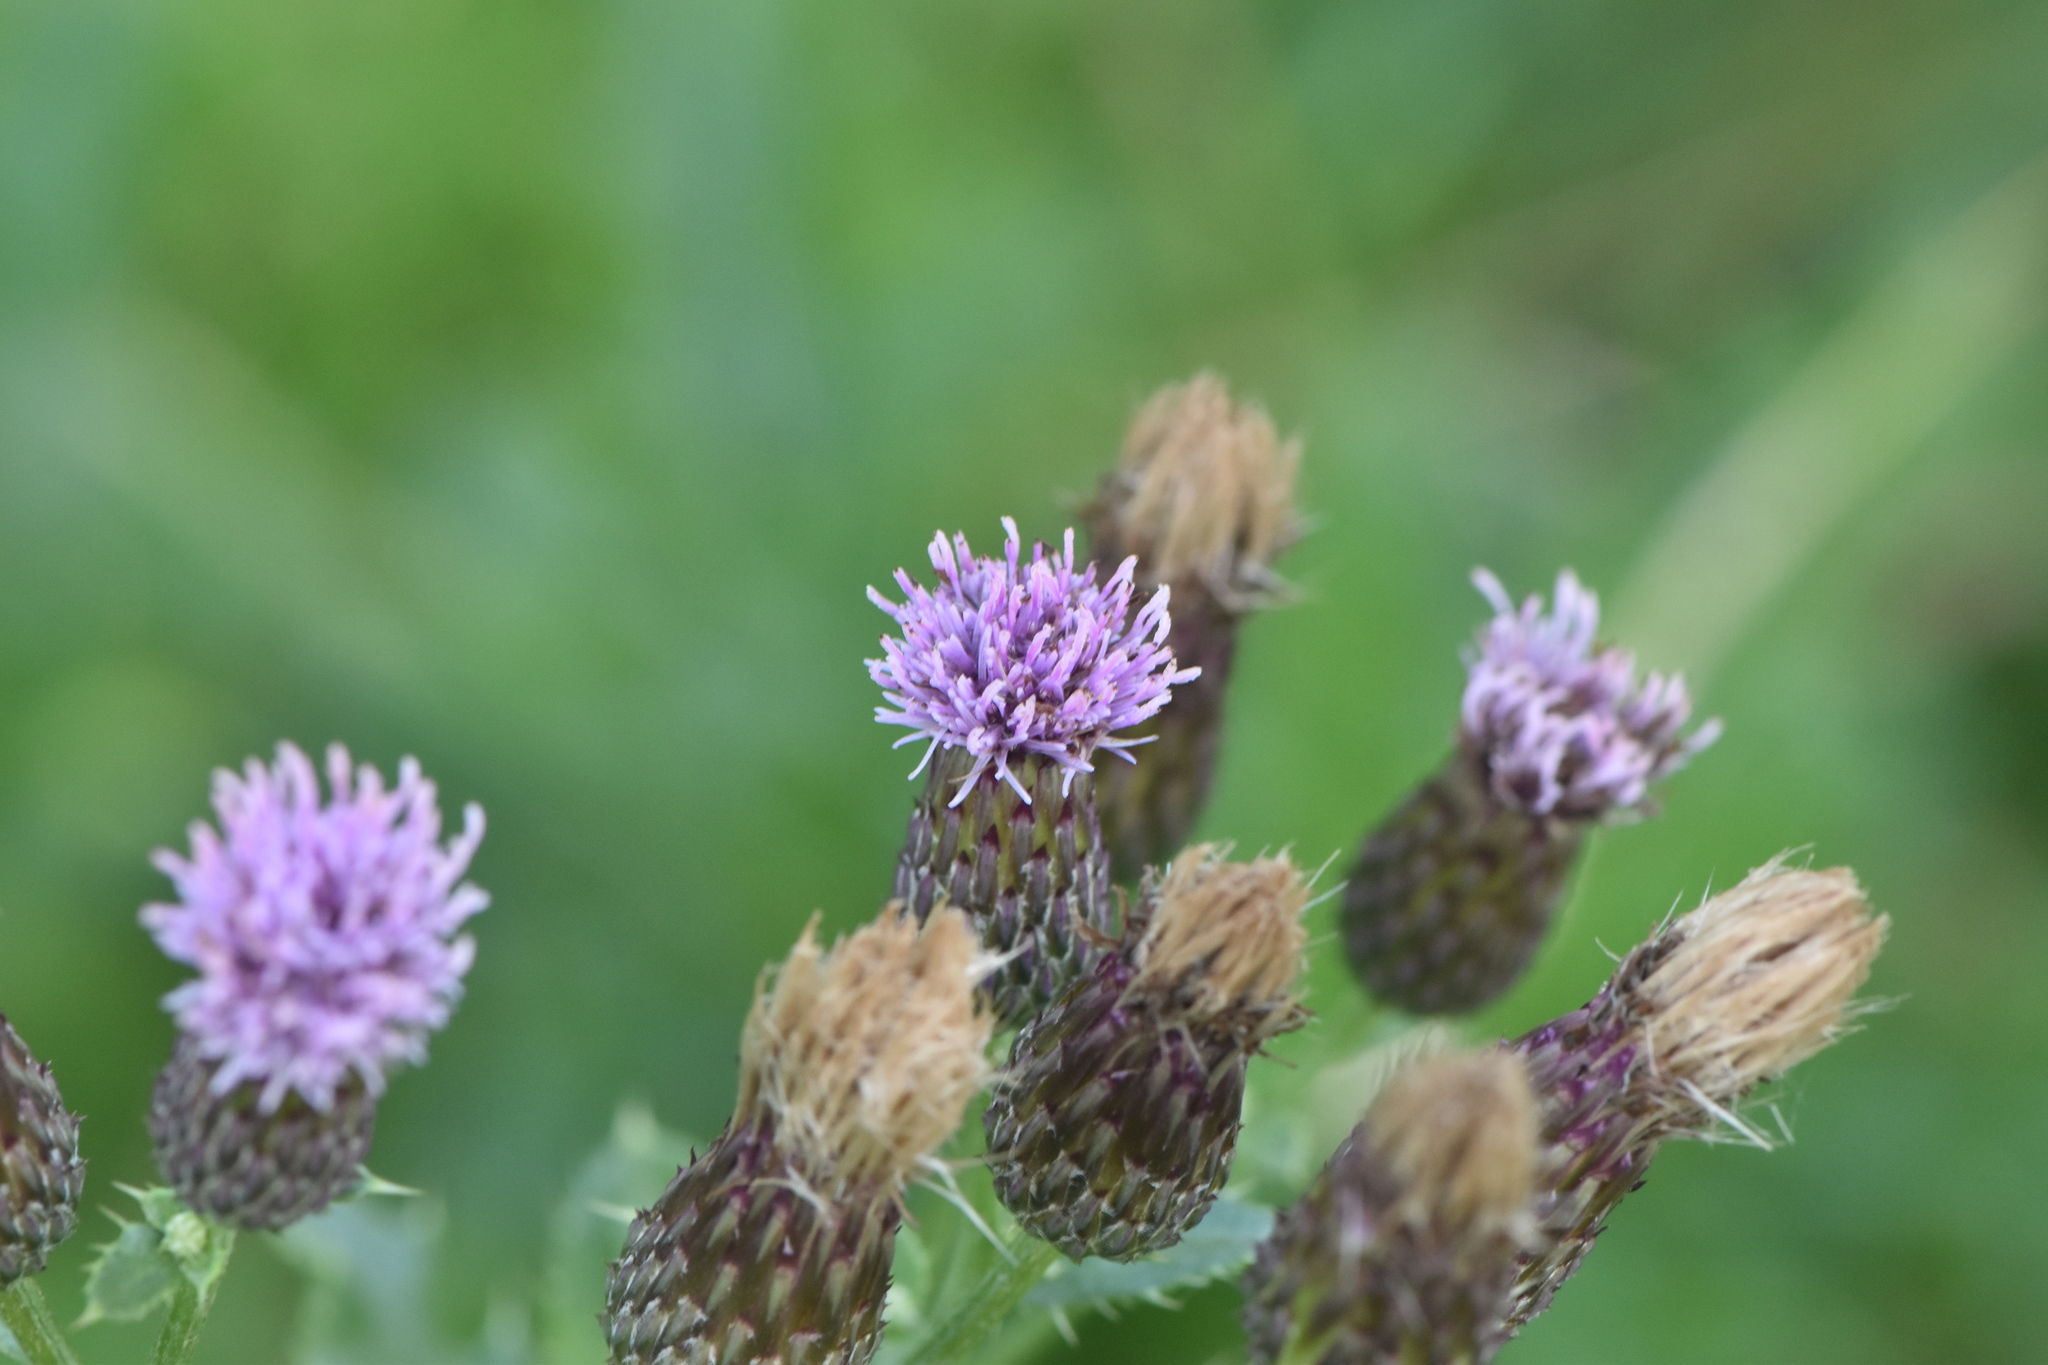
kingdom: Plantae
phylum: Tracheophyta
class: Magnoliopsida
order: Asterales
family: Asteraceae
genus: Cirsium
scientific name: Cirsium arvense
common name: Creeping thistle
